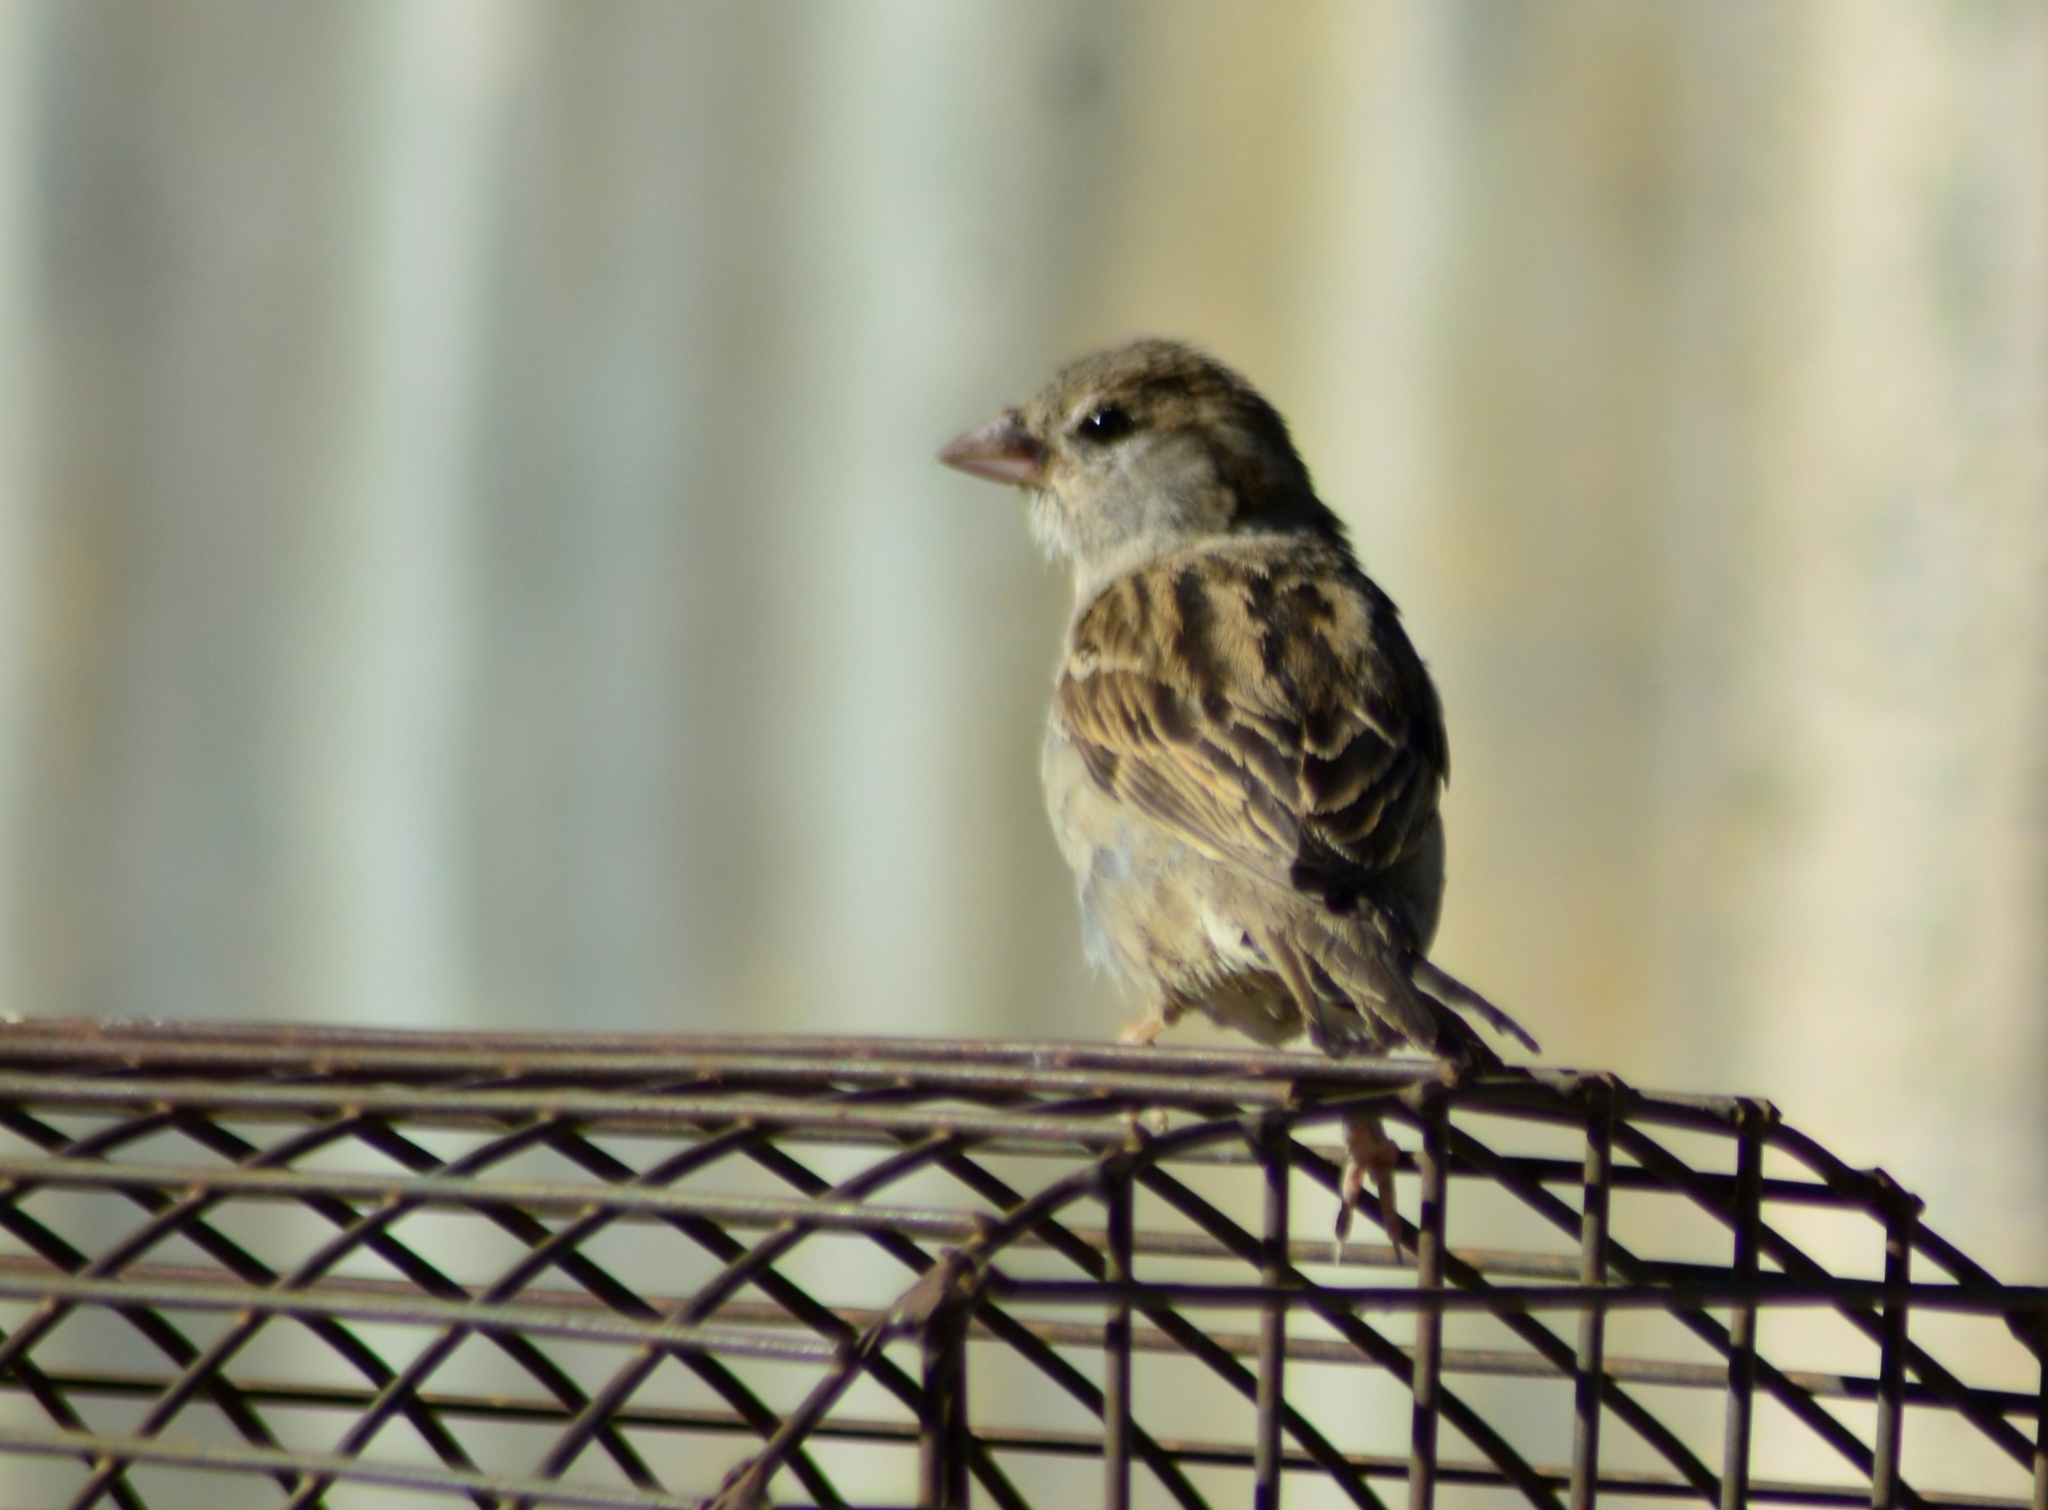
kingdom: Animalia
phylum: Chordata
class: Aves
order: Passeriformes
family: Passeridae
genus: Passer
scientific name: Passer domesticus
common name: House sparrow
